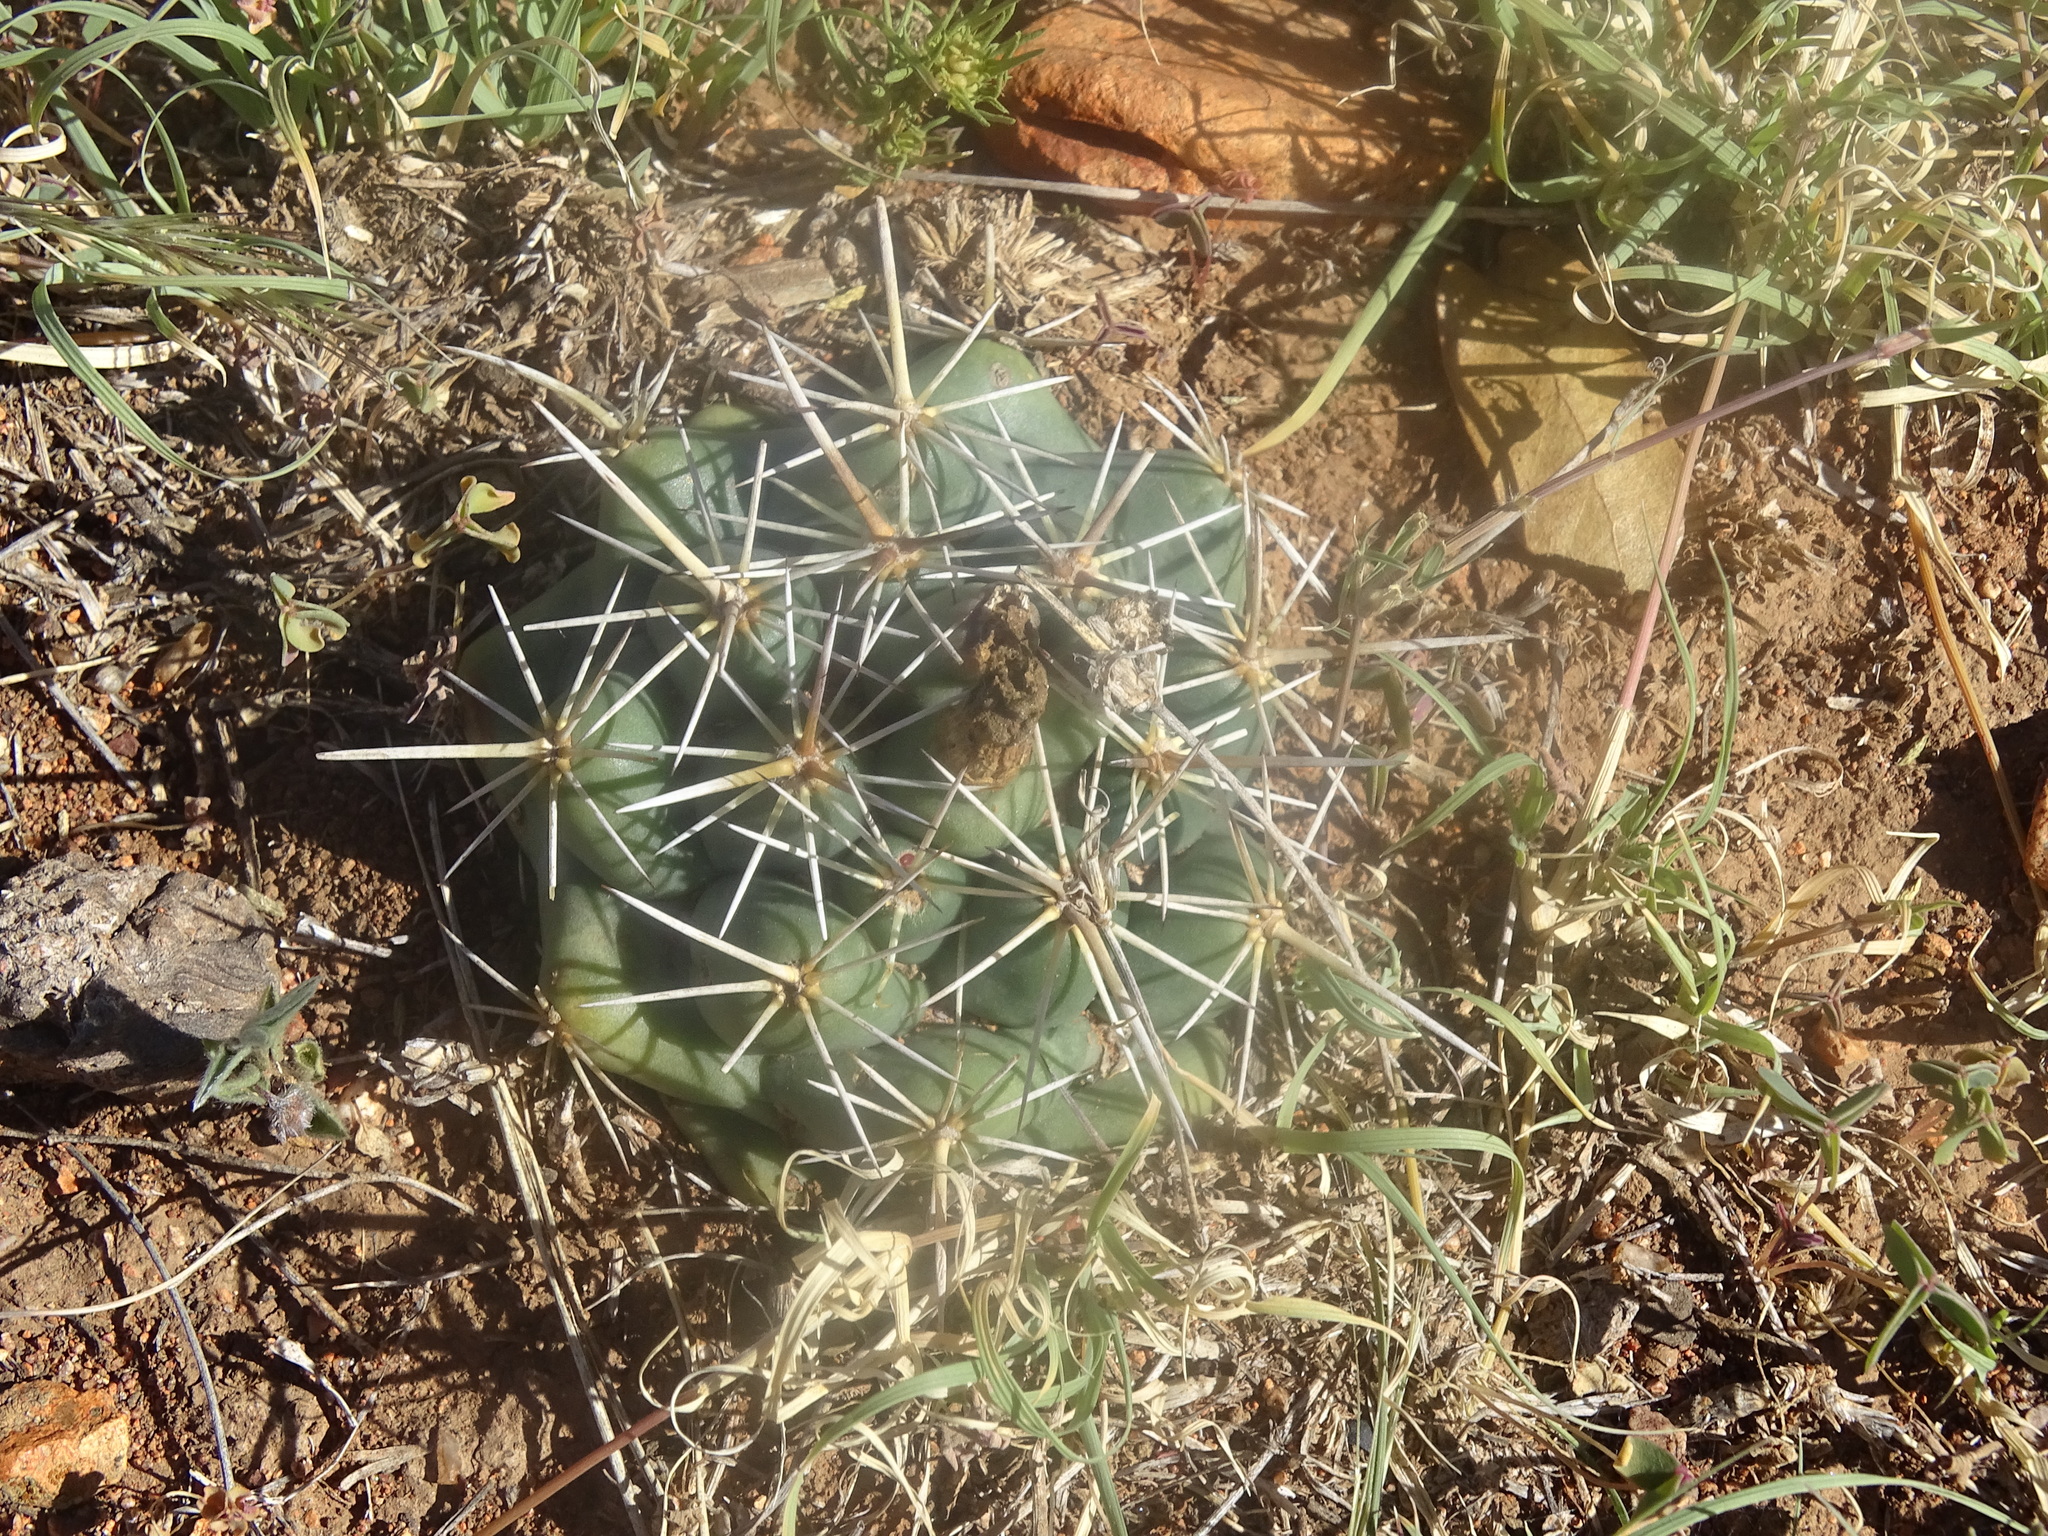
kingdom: Plantae
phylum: Tracheophyta
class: Magnoliopsida
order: Caryophyllales
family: Cactaceae
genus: Coryphantha
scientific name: Coryphantha ottonis
